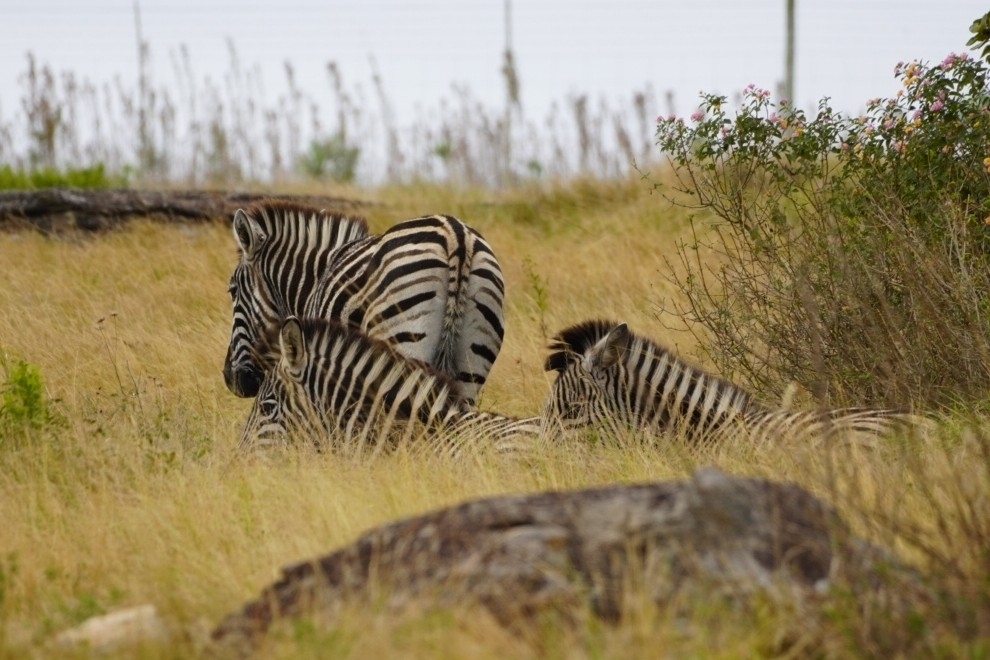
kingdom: Animalia
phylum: Chordata
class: Mammalia
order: Perissodactyla
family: Equidae
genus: Equus
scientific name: Equus quagga
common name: Plains zebra
